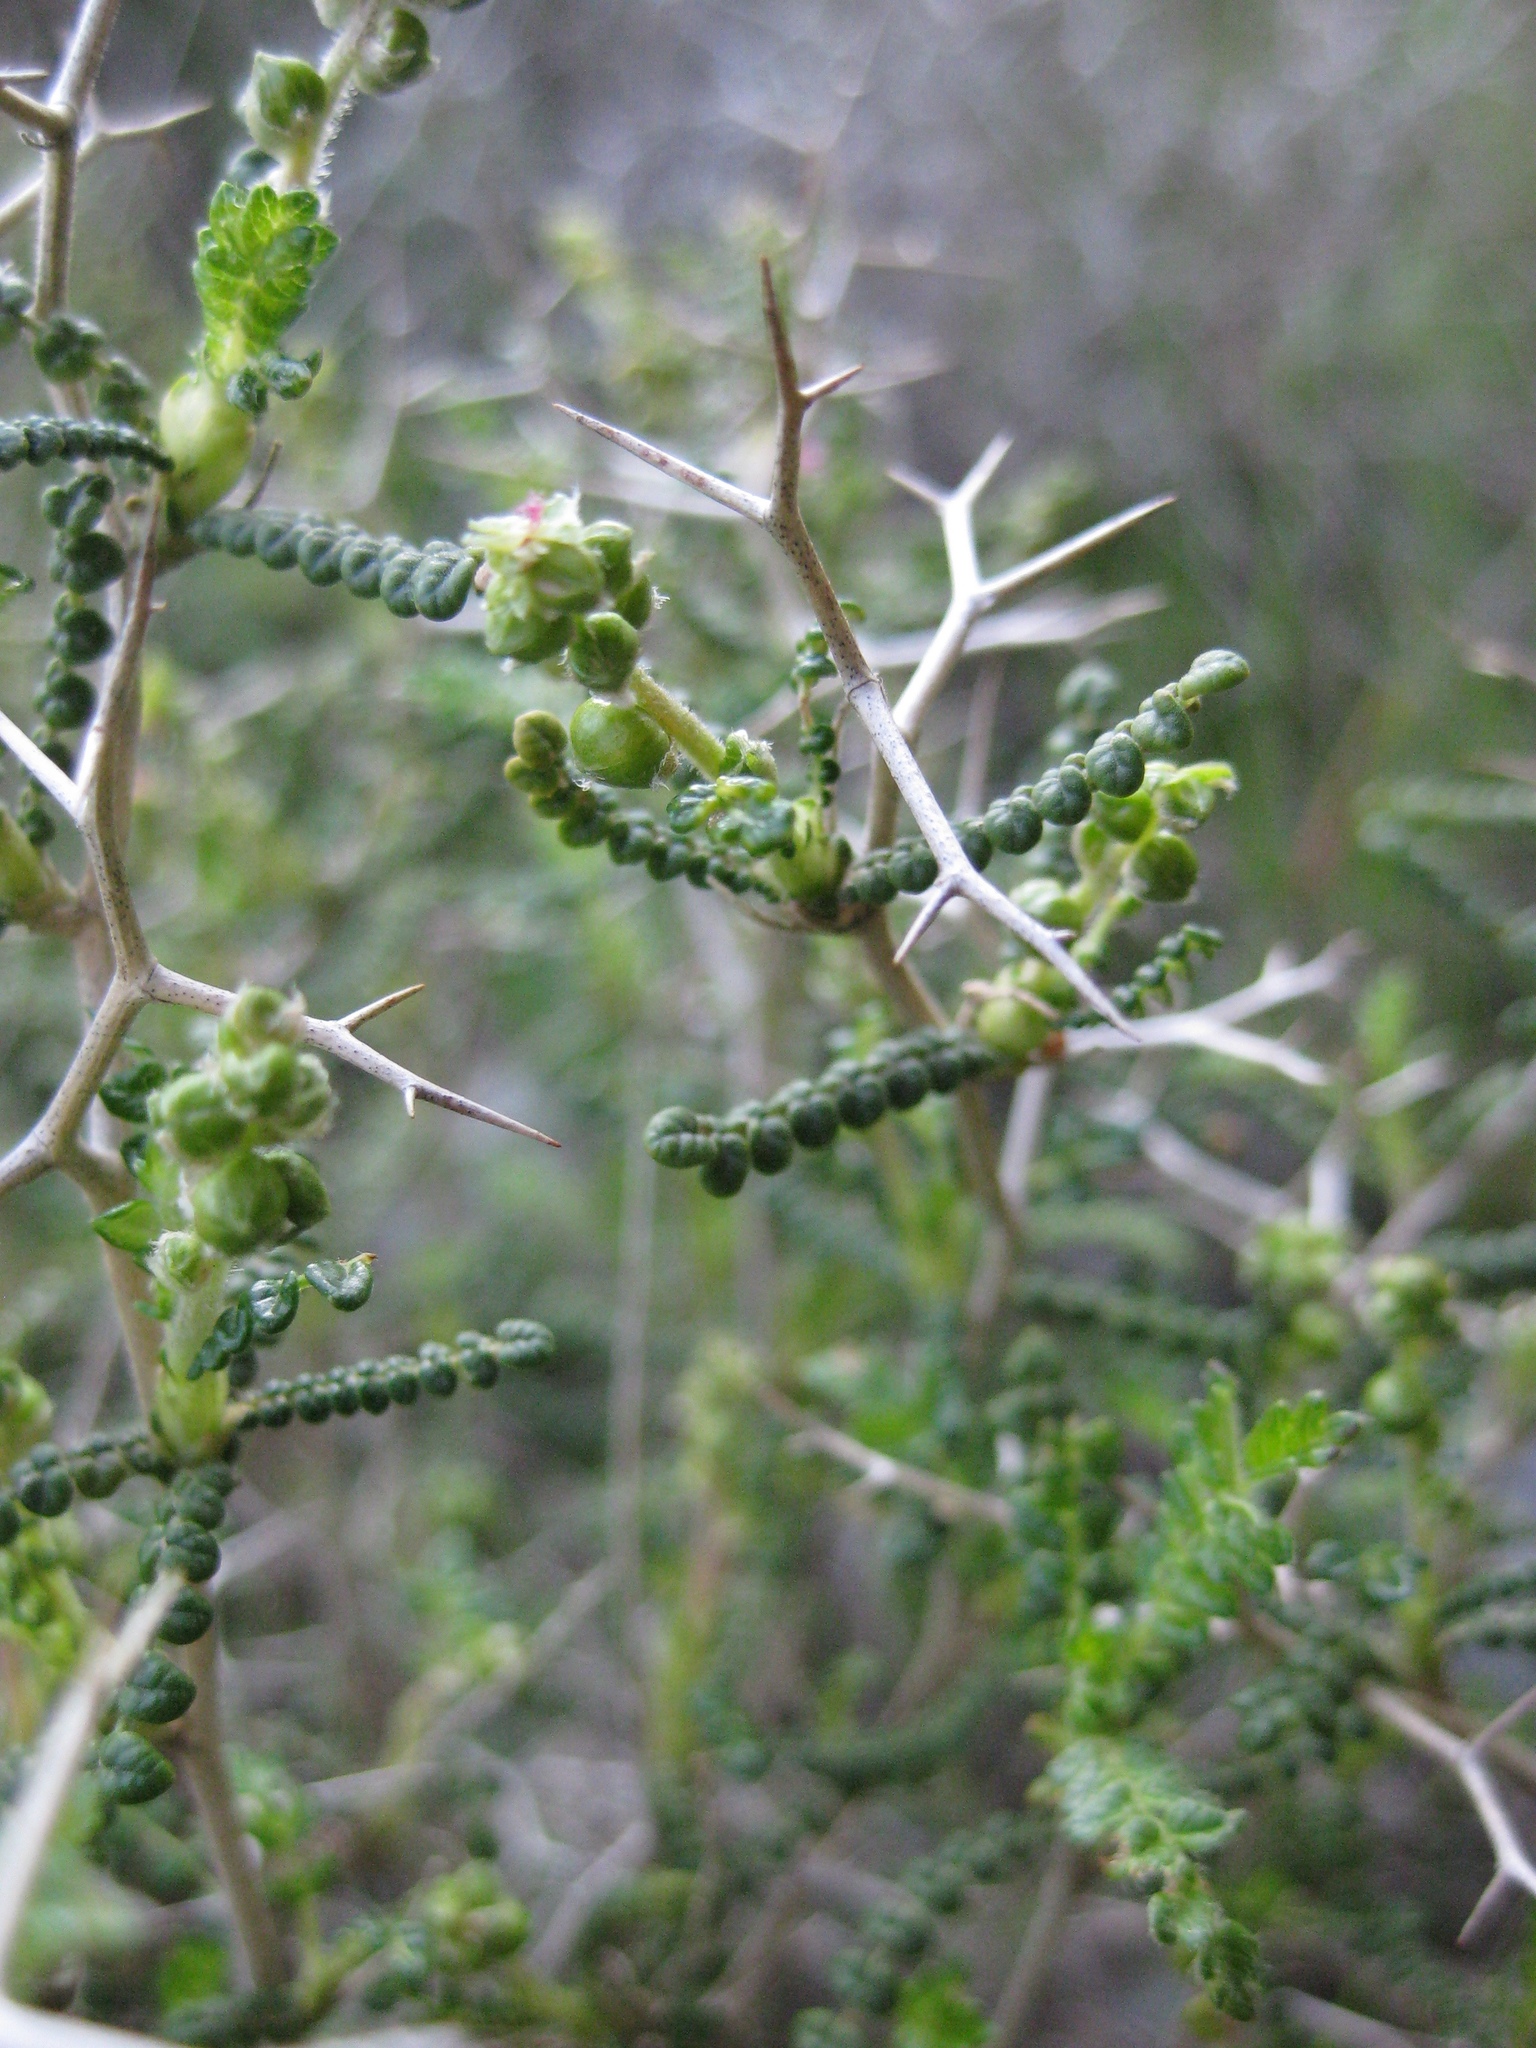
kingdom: Plantae
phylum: Tracheophyta
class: Magnoliopsida
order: Rosales
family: Rosaceae
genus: Sarcopoterium
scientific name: Sarcopoterium spinosum
